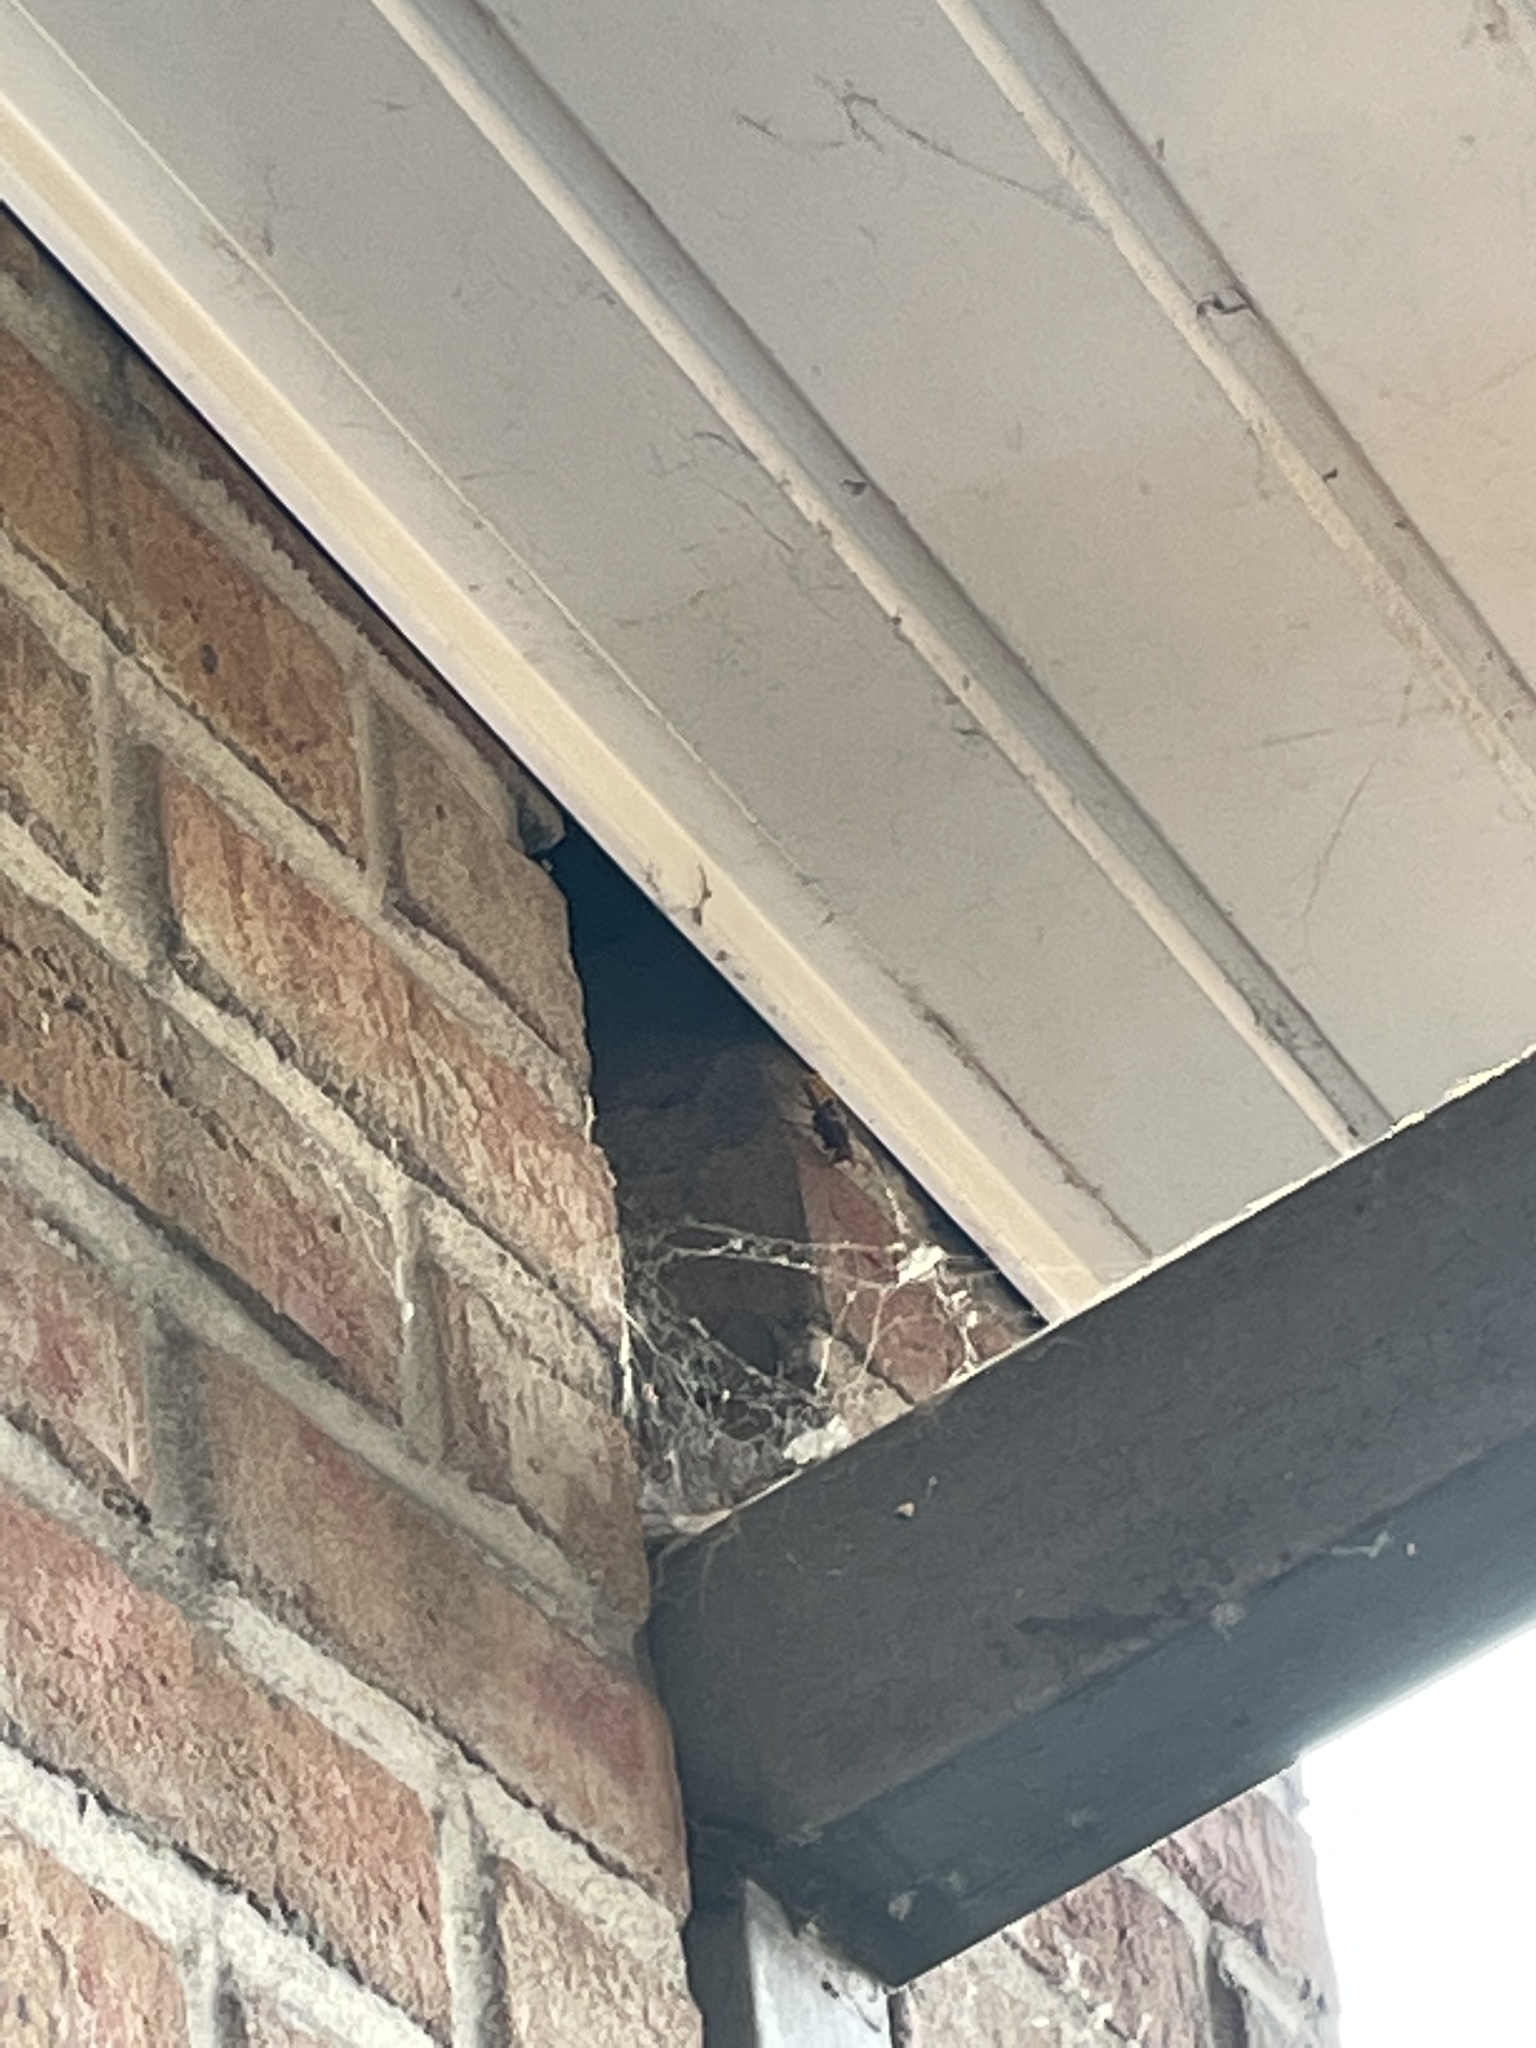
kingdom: Animalia
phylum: Arthropoda
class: Insecta
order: Hymenoptera
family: Vespidae
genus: Vespa
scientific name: Vespa crabro
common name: Hornet
